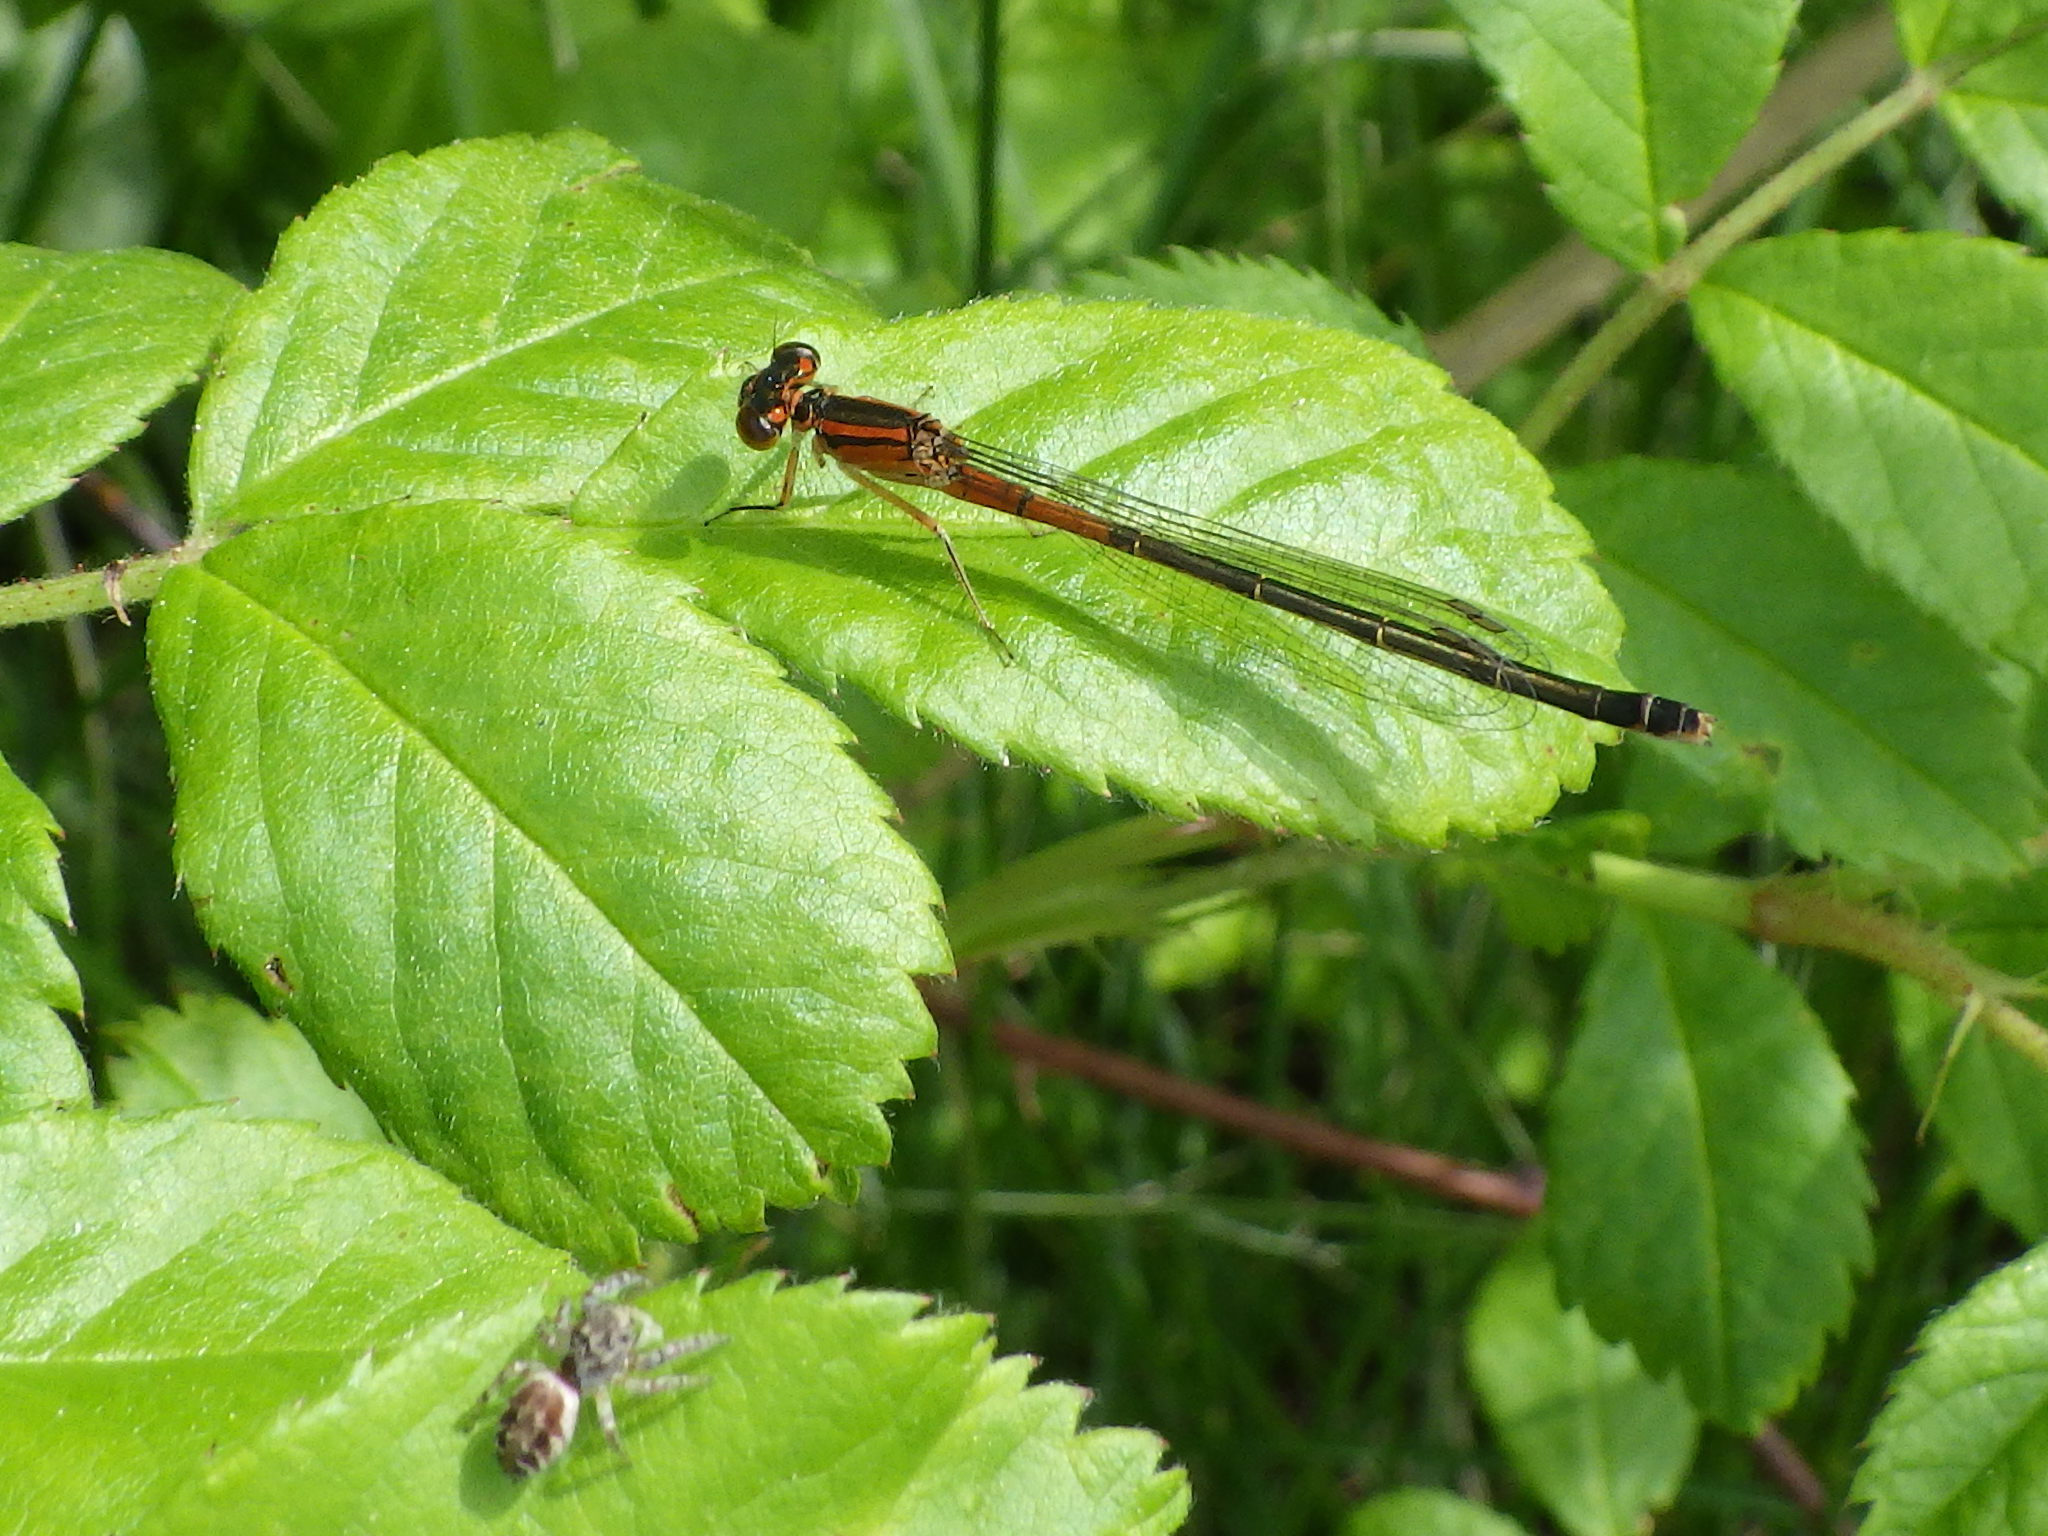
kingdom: Animalia
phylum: Arthropoda
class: Insecta
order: Odonata
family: Coenagrionidae
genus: Ischnura
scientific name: Ischnura verticalis
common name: Eastern forktail
